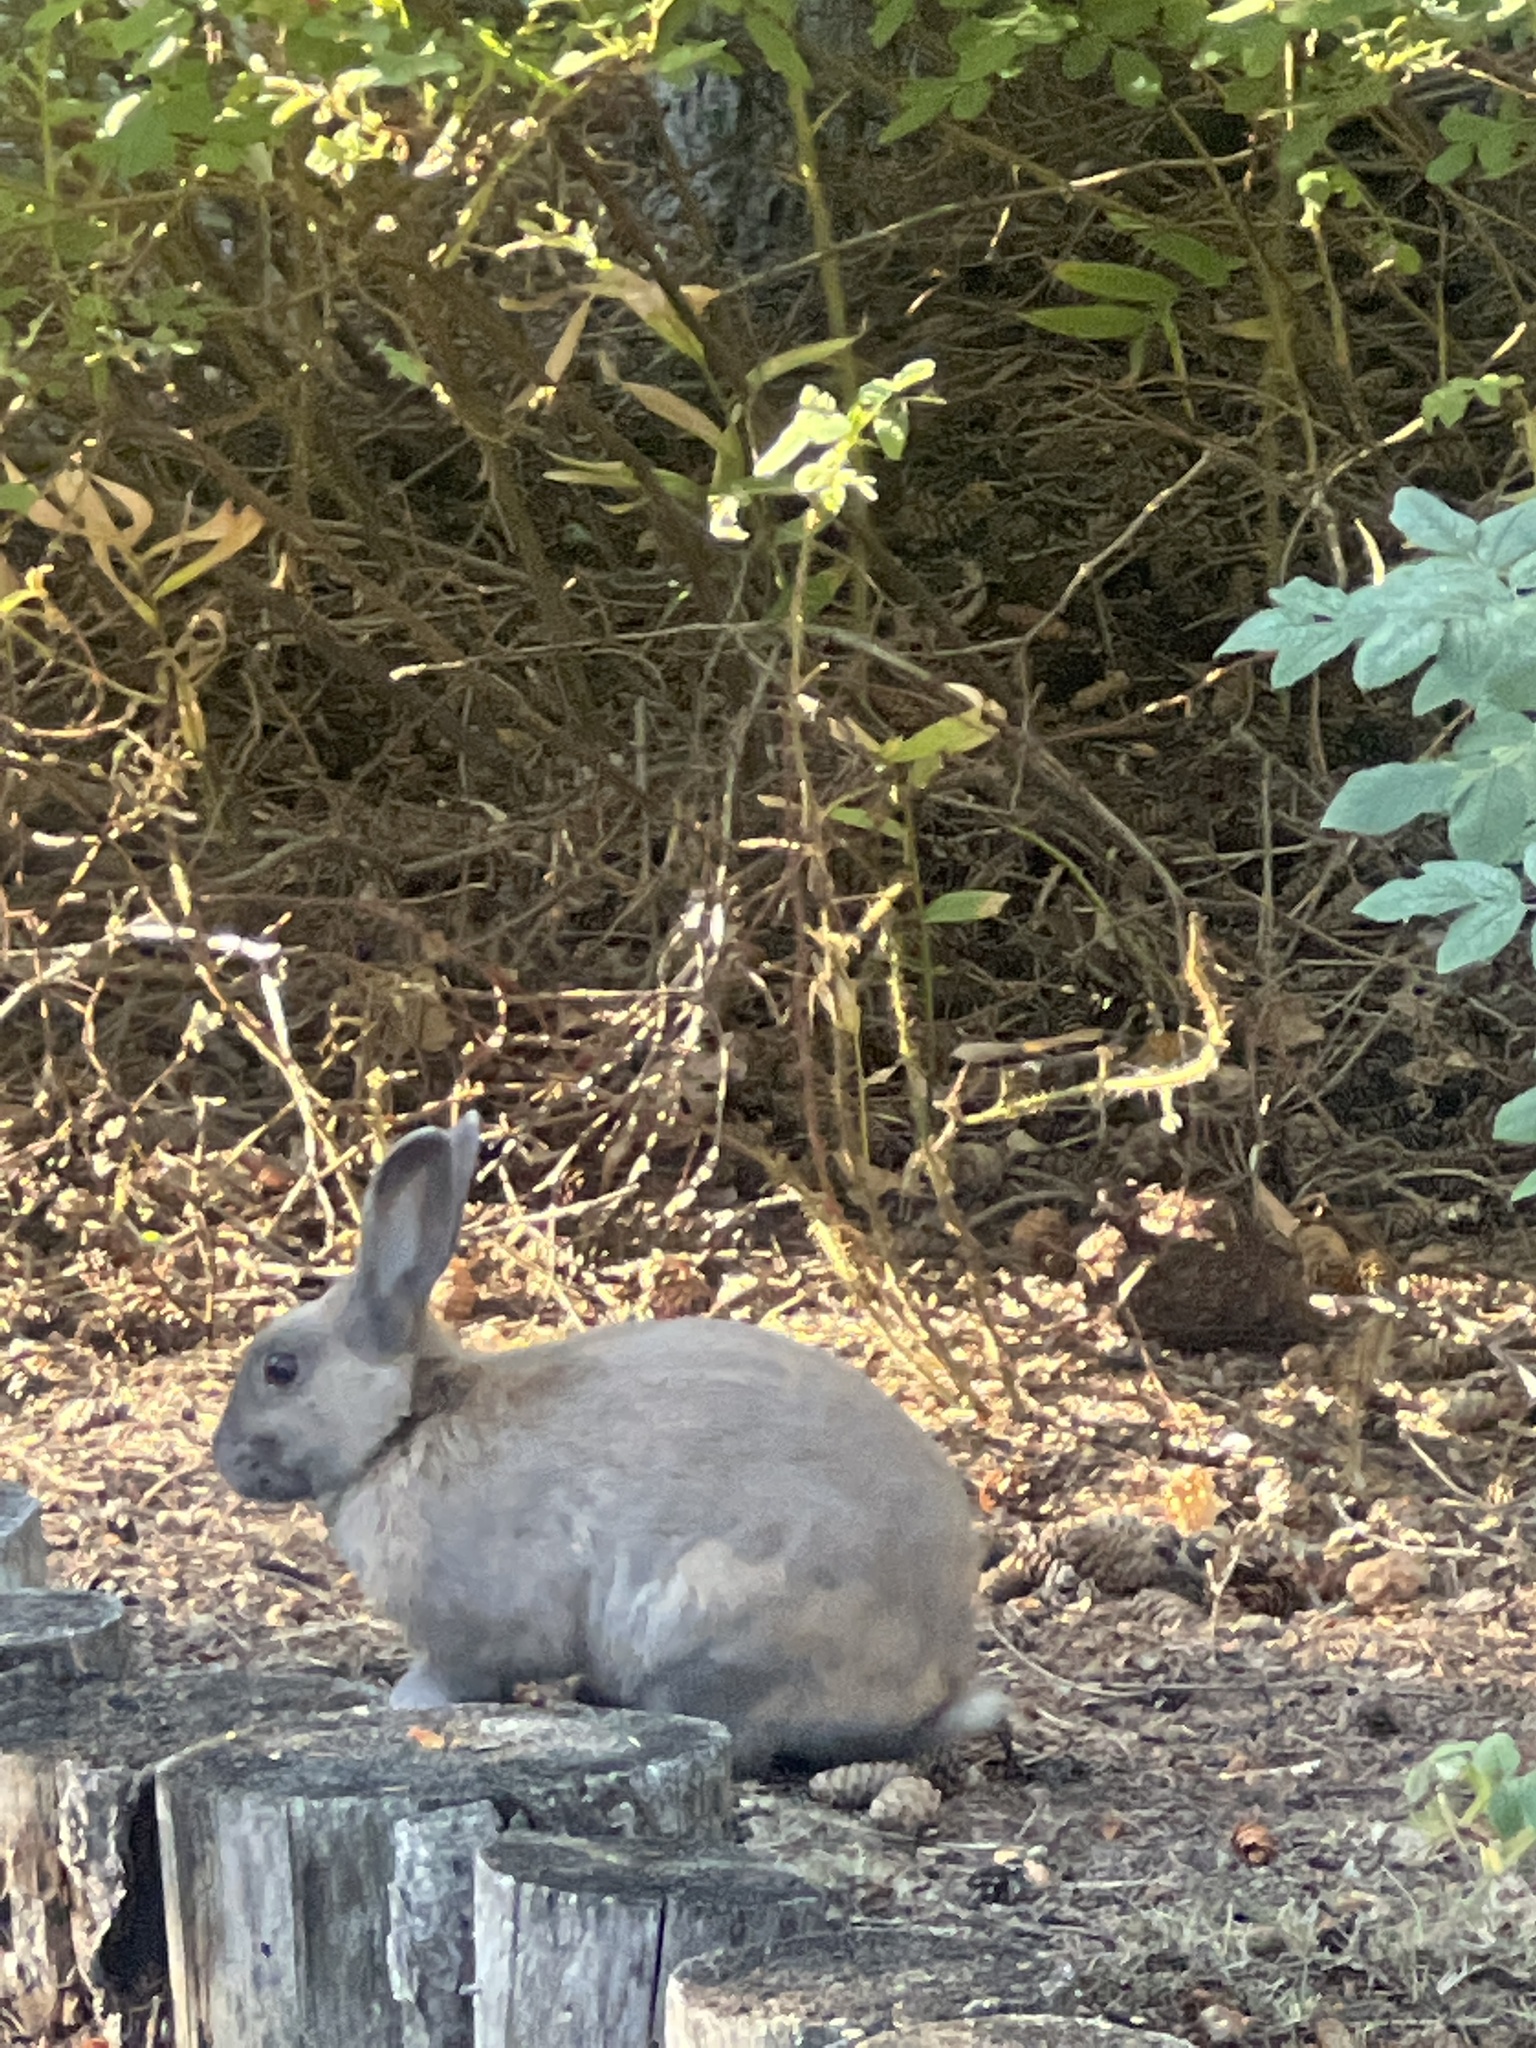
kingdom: Animalia
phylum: Chordata
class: Mammalia
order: Lagomorpha
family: Leporidae
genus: Oryctolagus
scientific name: Oryctolagus cuniculus
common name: European rabbit
